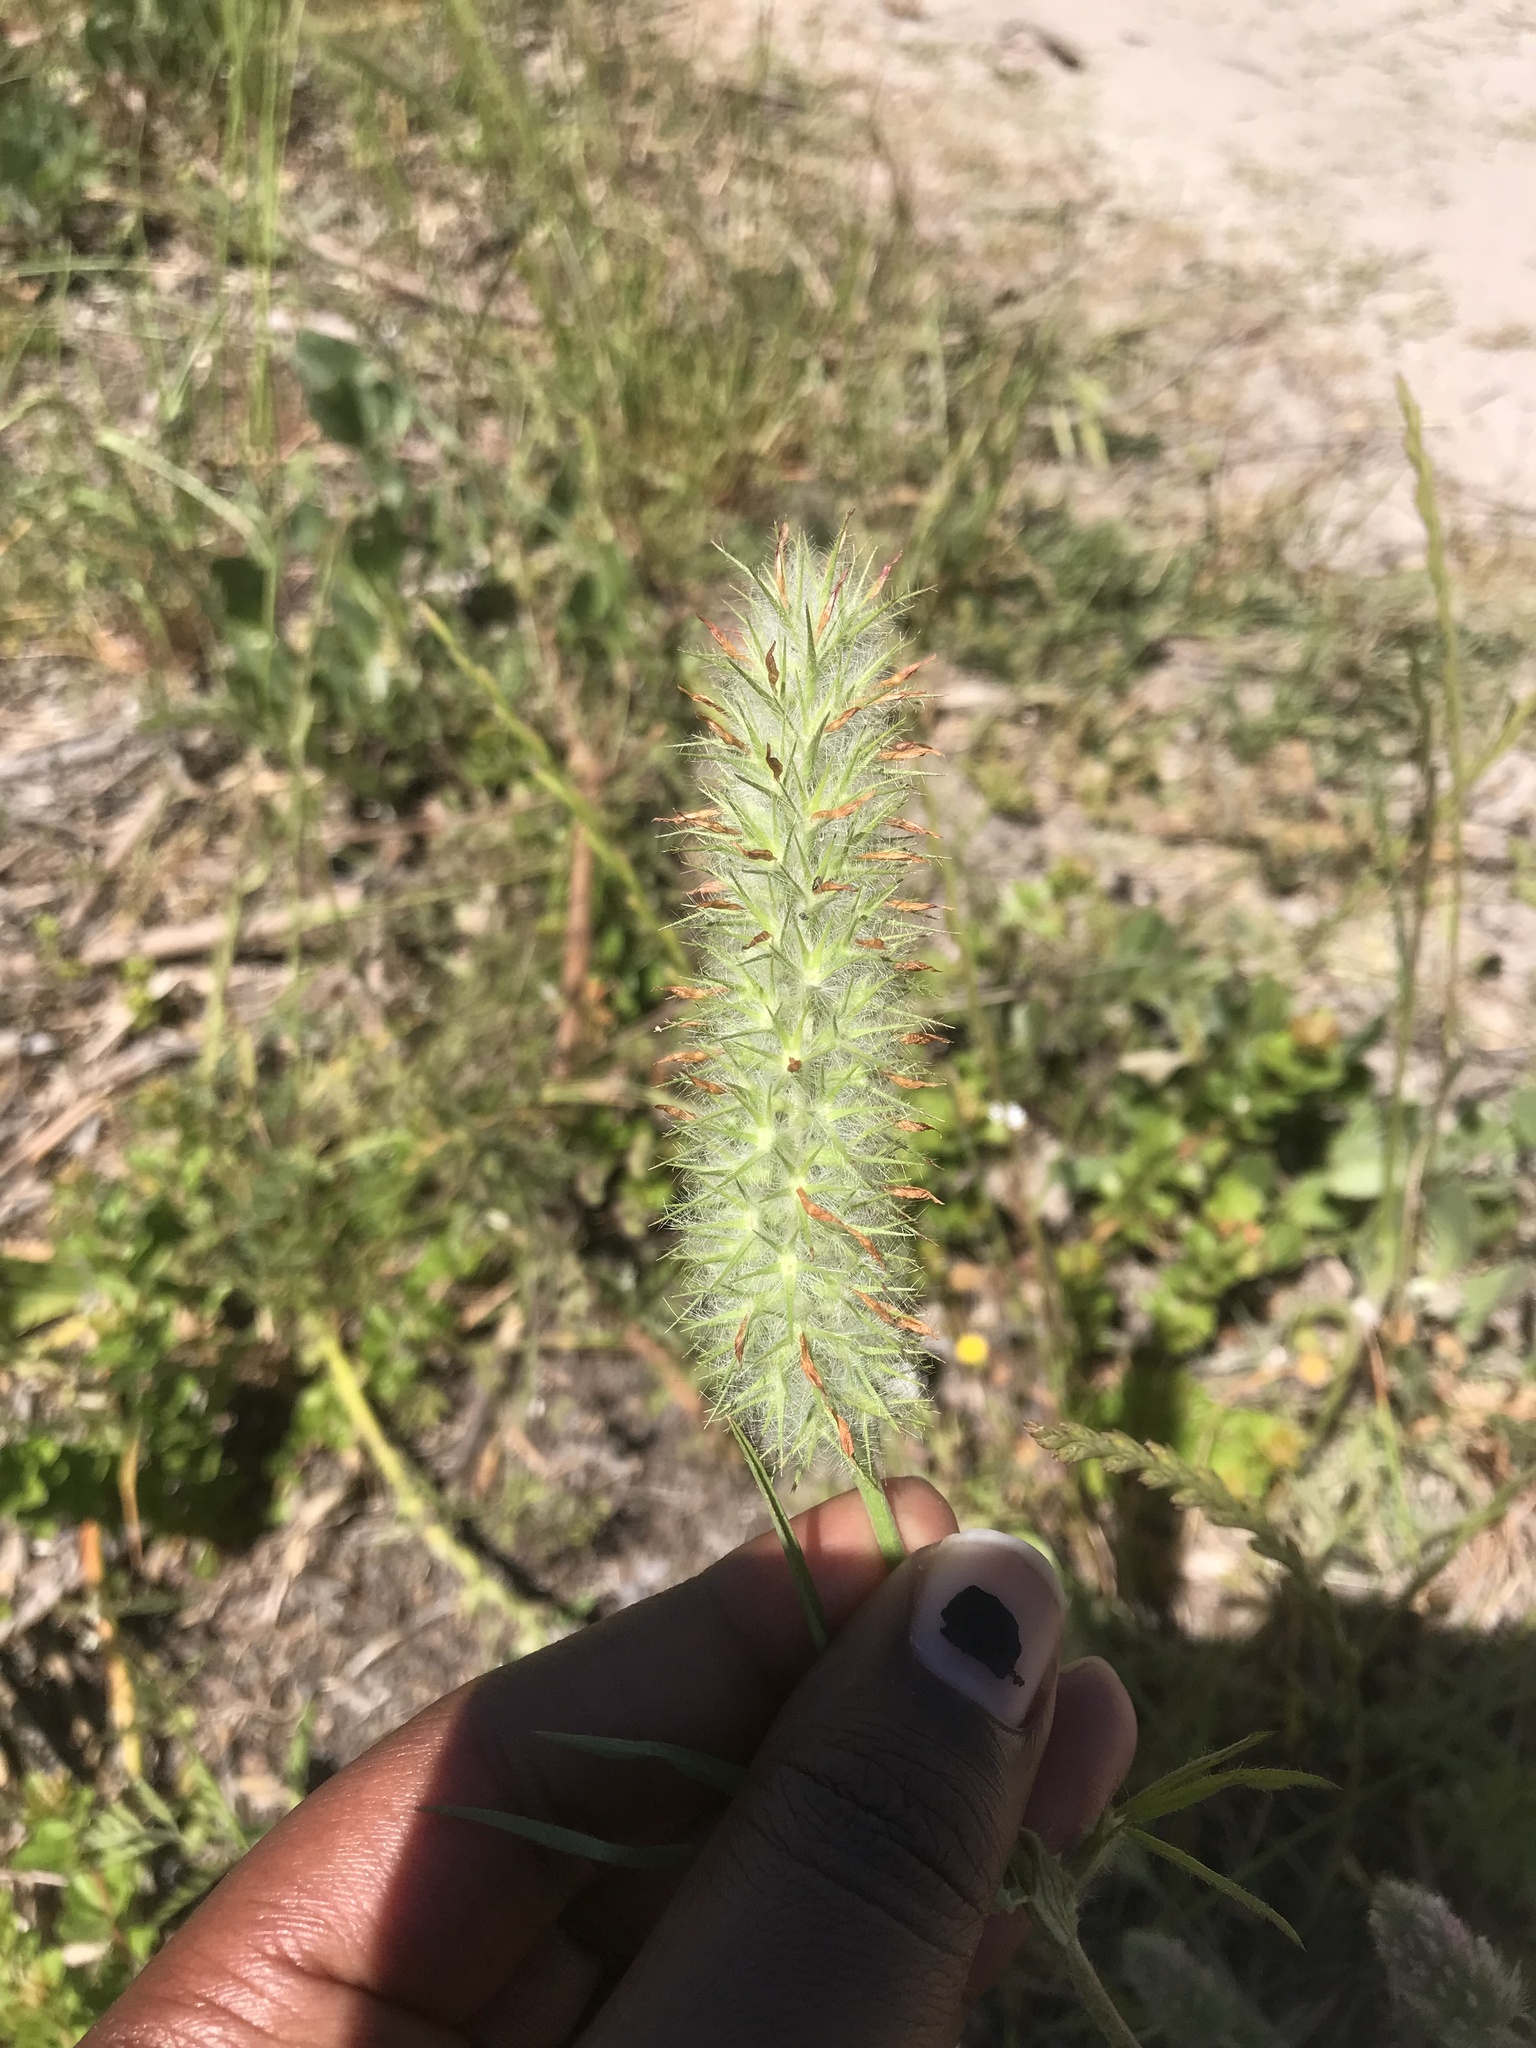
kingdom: Plantae
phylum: Tracheophyta
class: Magnoliopsida
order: Fabales
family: Fabaceae
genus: Trifolium
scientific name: Trifolium angustifolium
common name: Narrow clover
